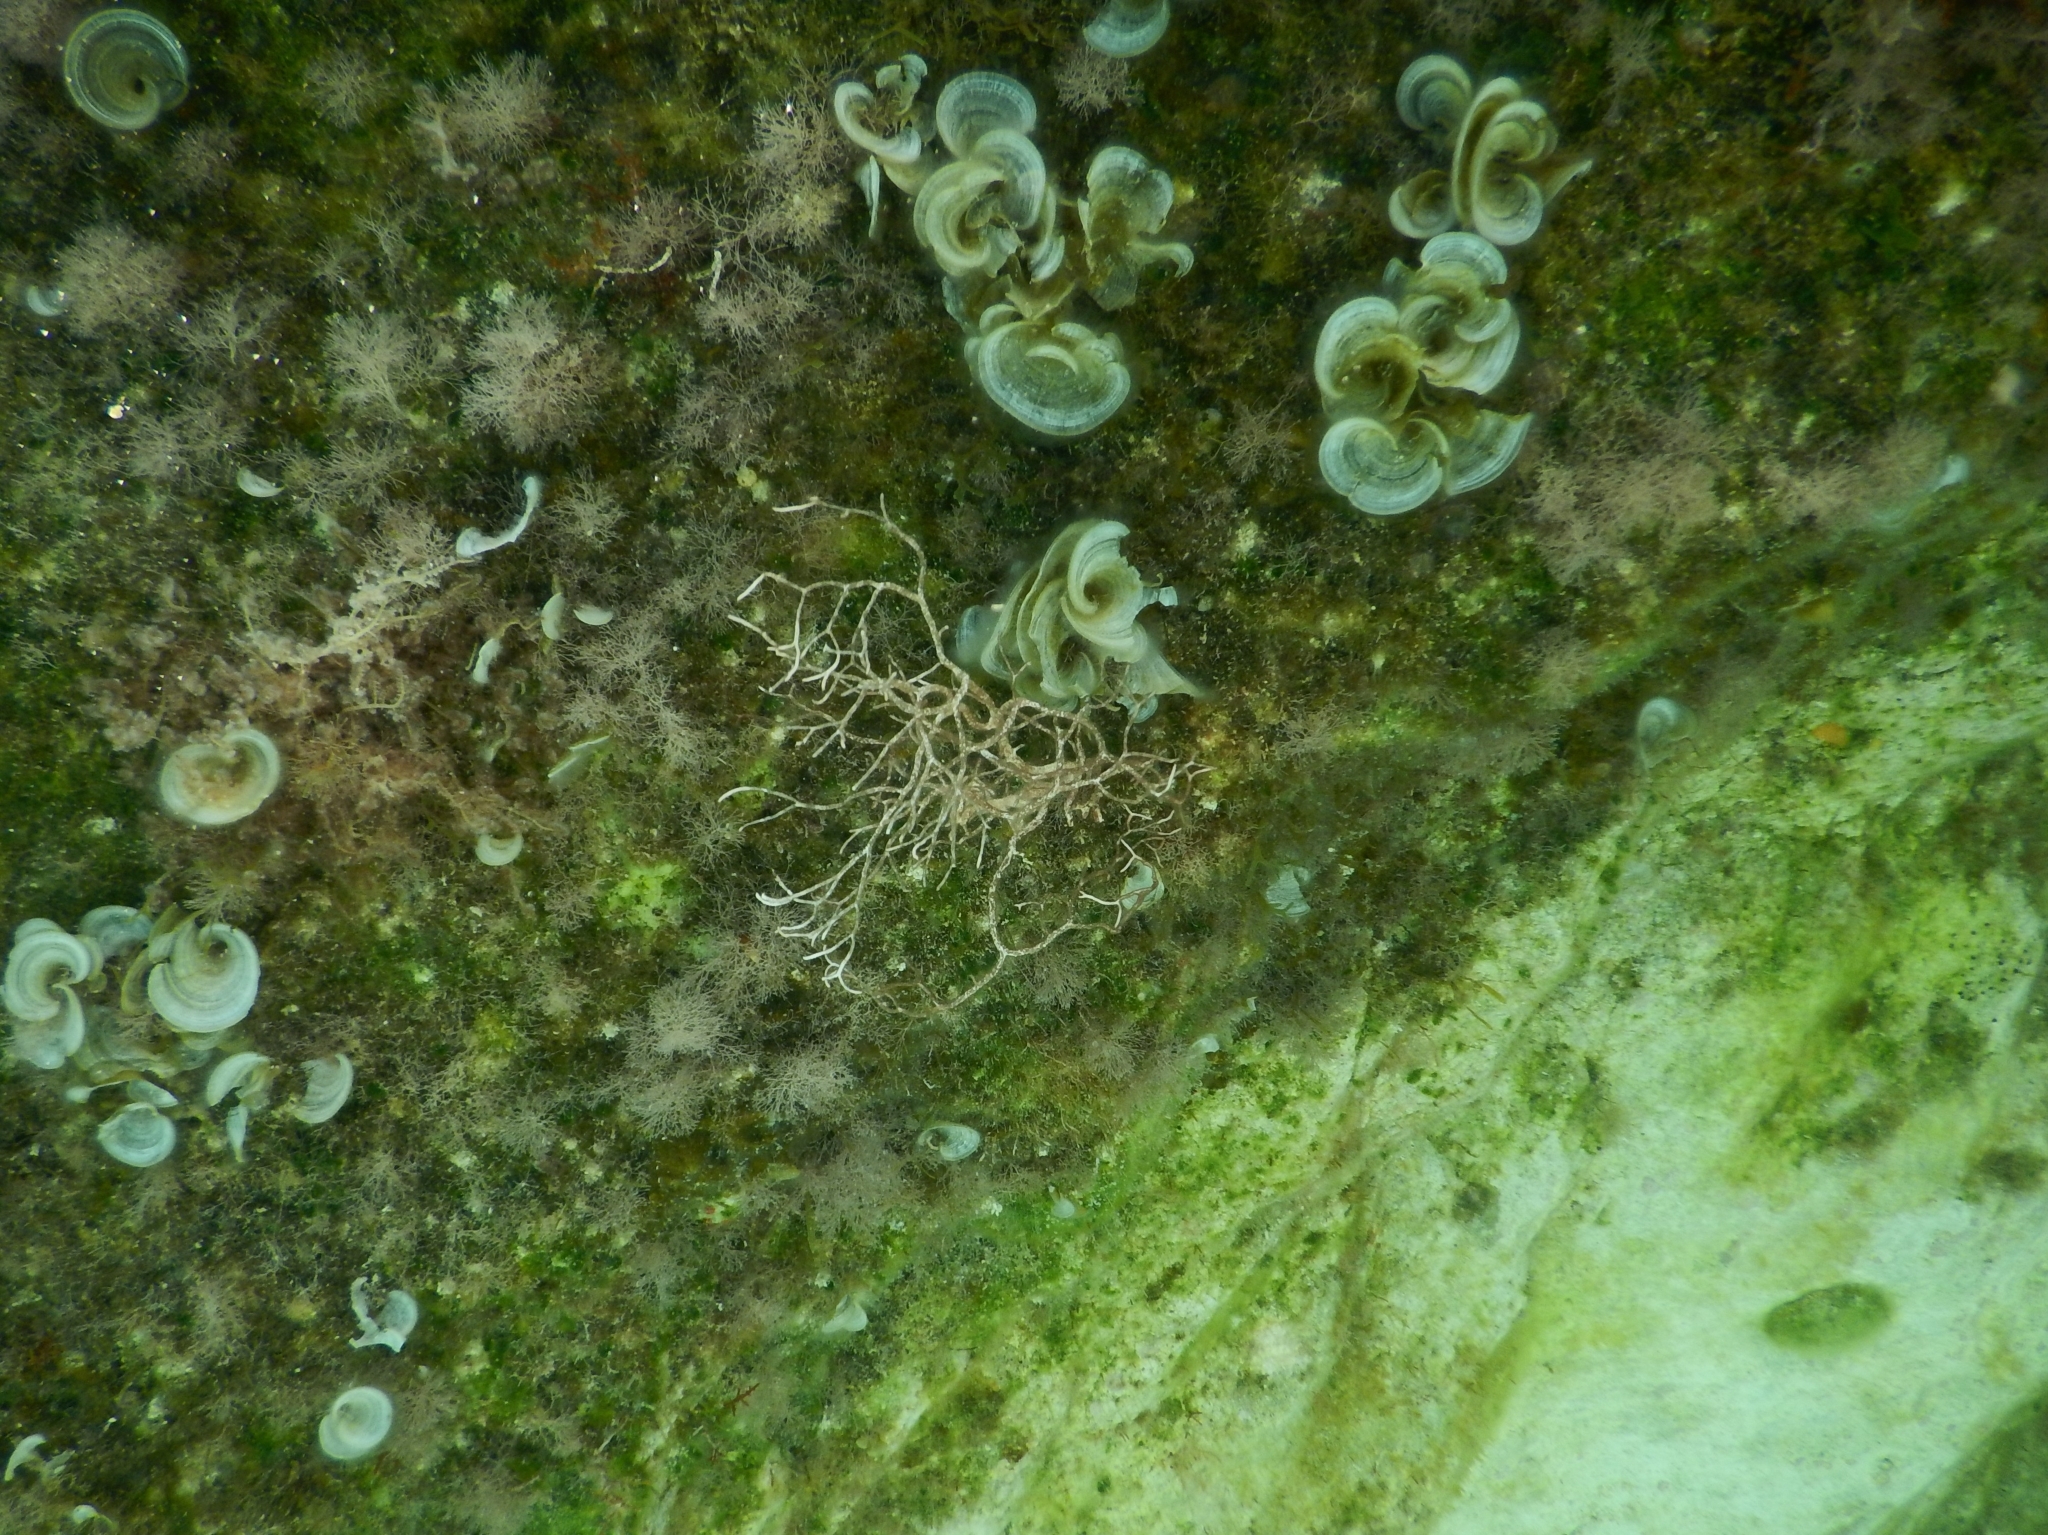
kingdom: Chromista
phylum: Ochrophyta
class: Phaeophyceae
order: Dictyotales
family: Dictyotaceae
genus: Padina
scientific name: Padina
